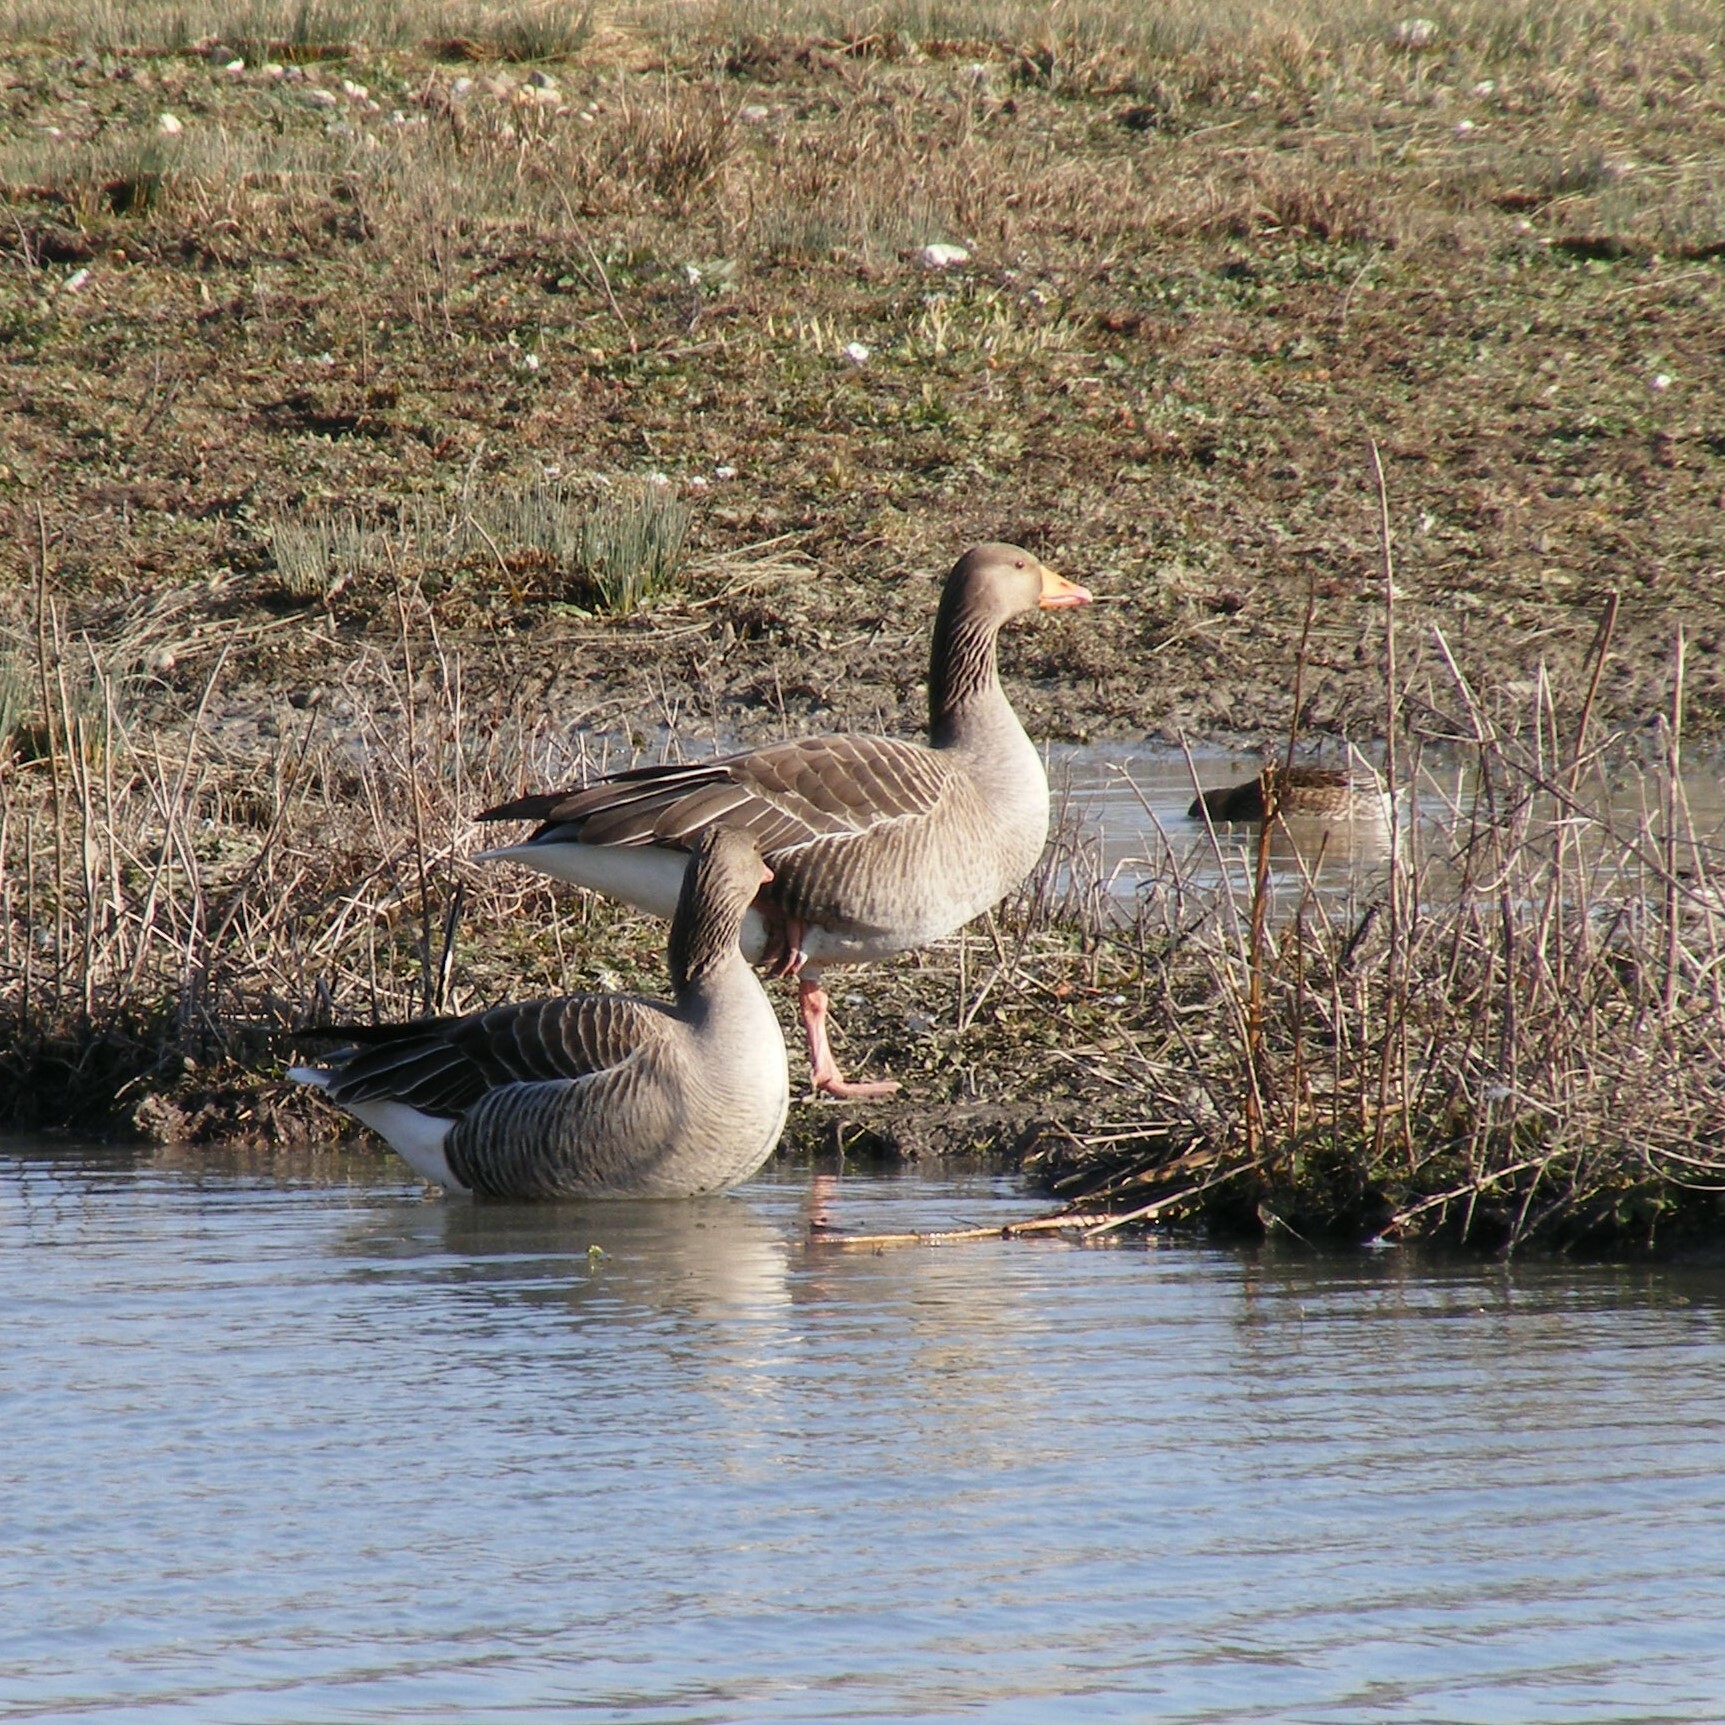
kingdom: Animalia
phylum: Chordata
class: Aves
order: Anseriformes
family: Anatidae
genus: Anser
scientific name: Anser anser
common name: Greylag goose
